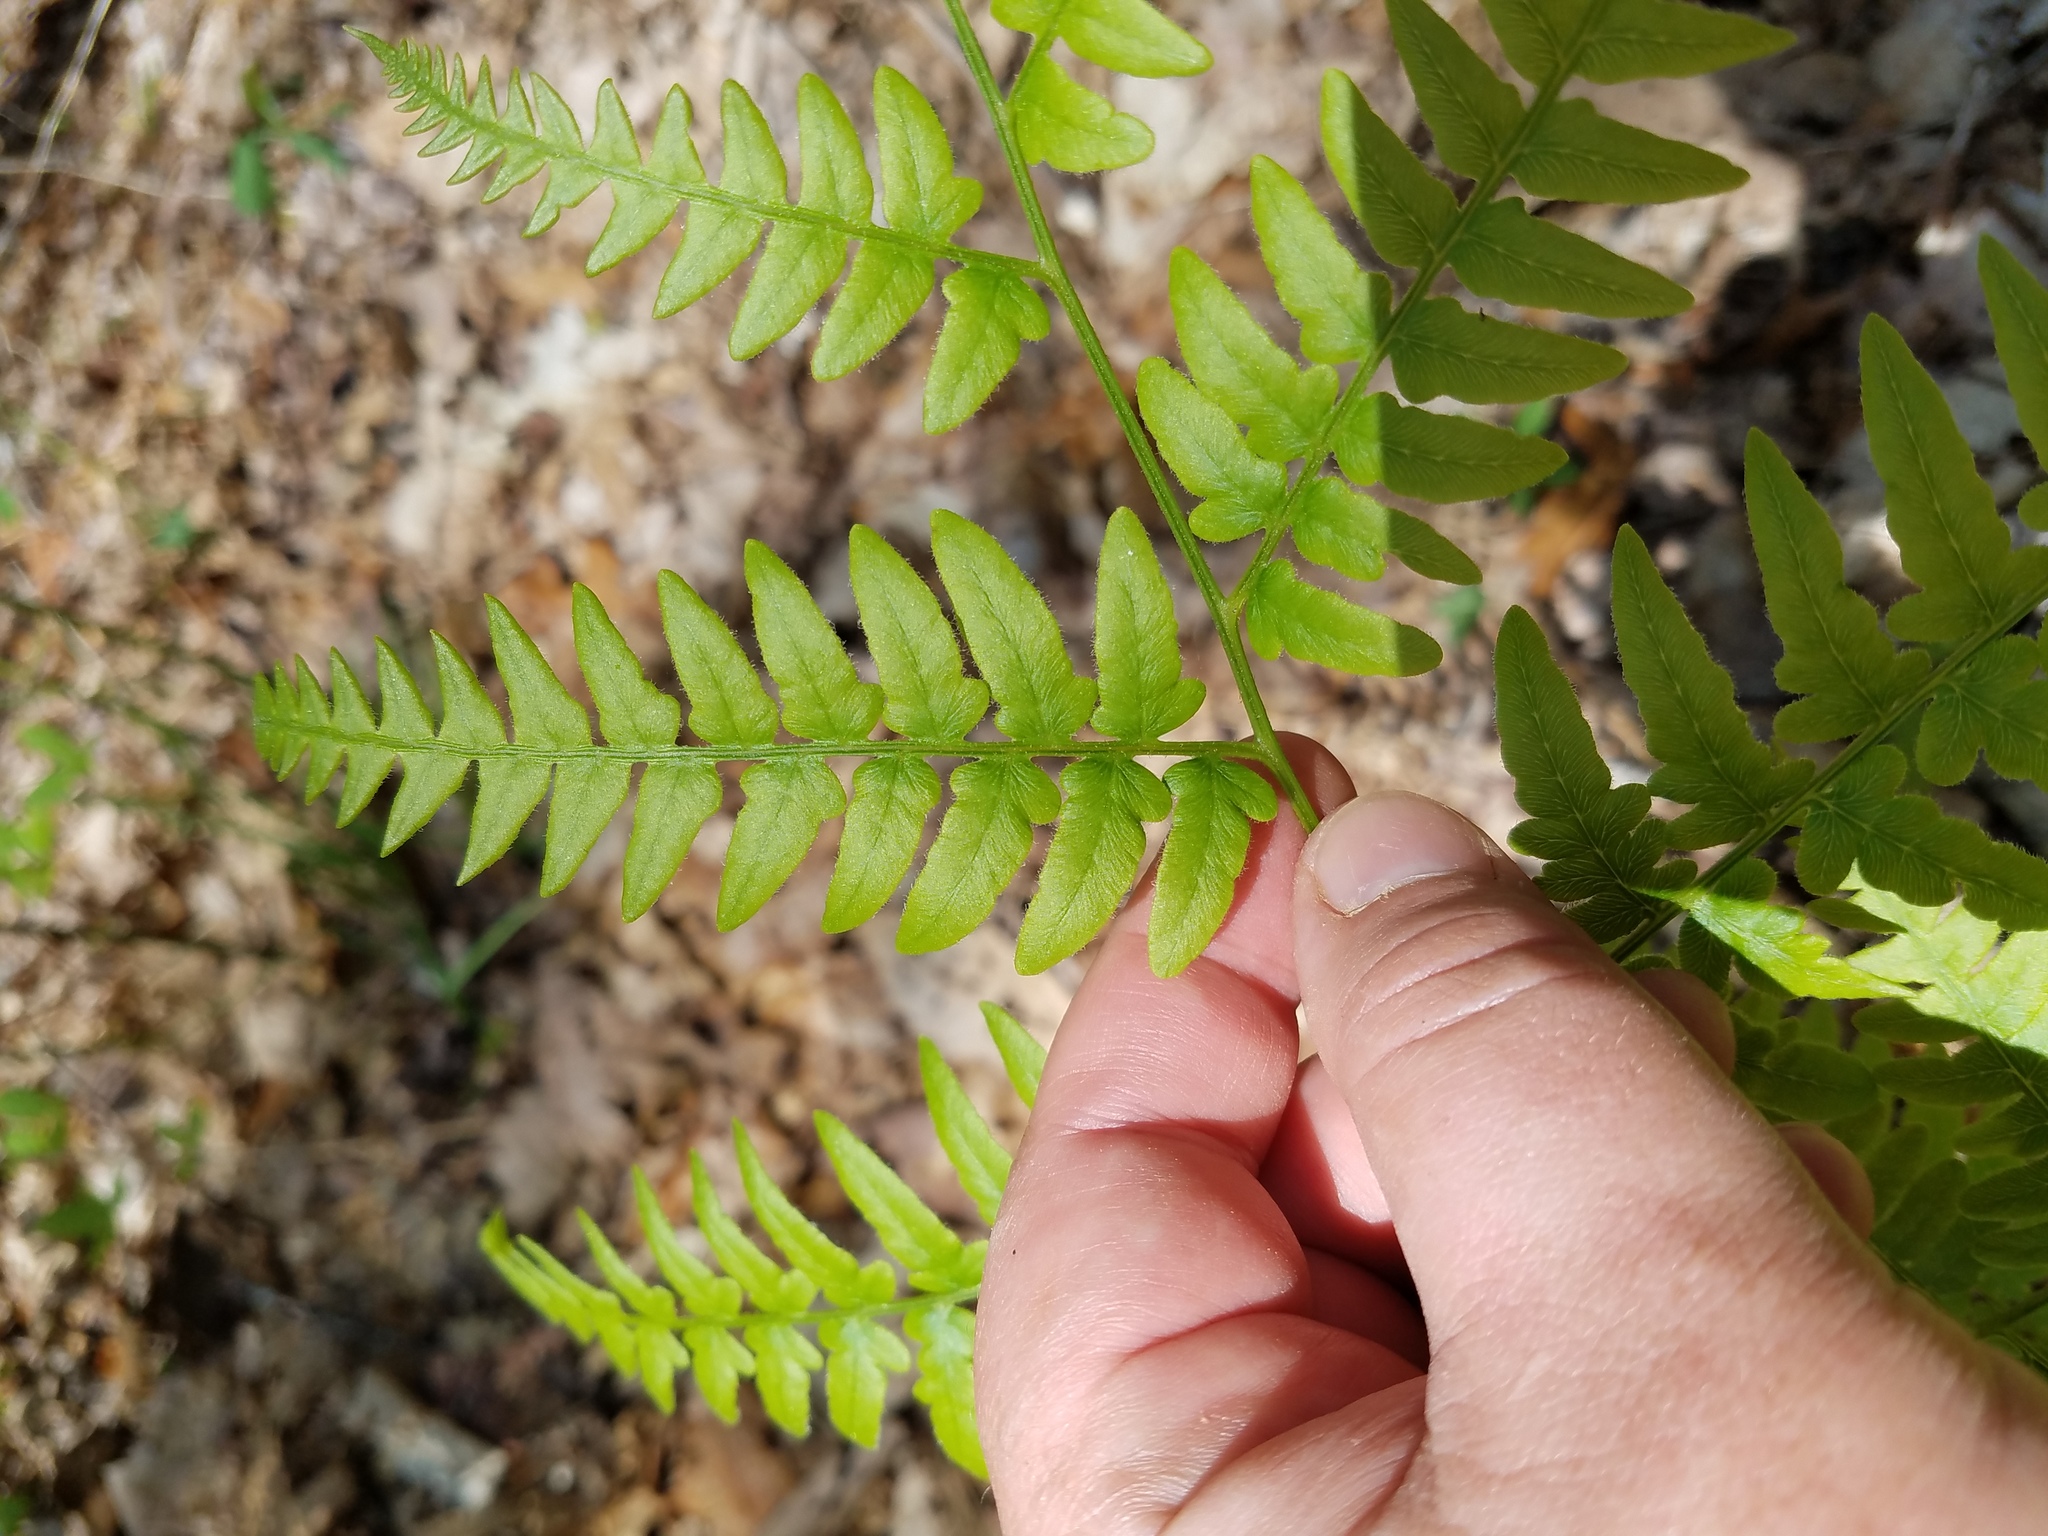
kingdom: Plantae
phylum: Tracheophyta
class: Polypodiopsida
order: Polypodiales
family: Dennstaedtiaceae
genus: Pteridium
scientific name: Pteridium aquilinum
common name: Bracken
